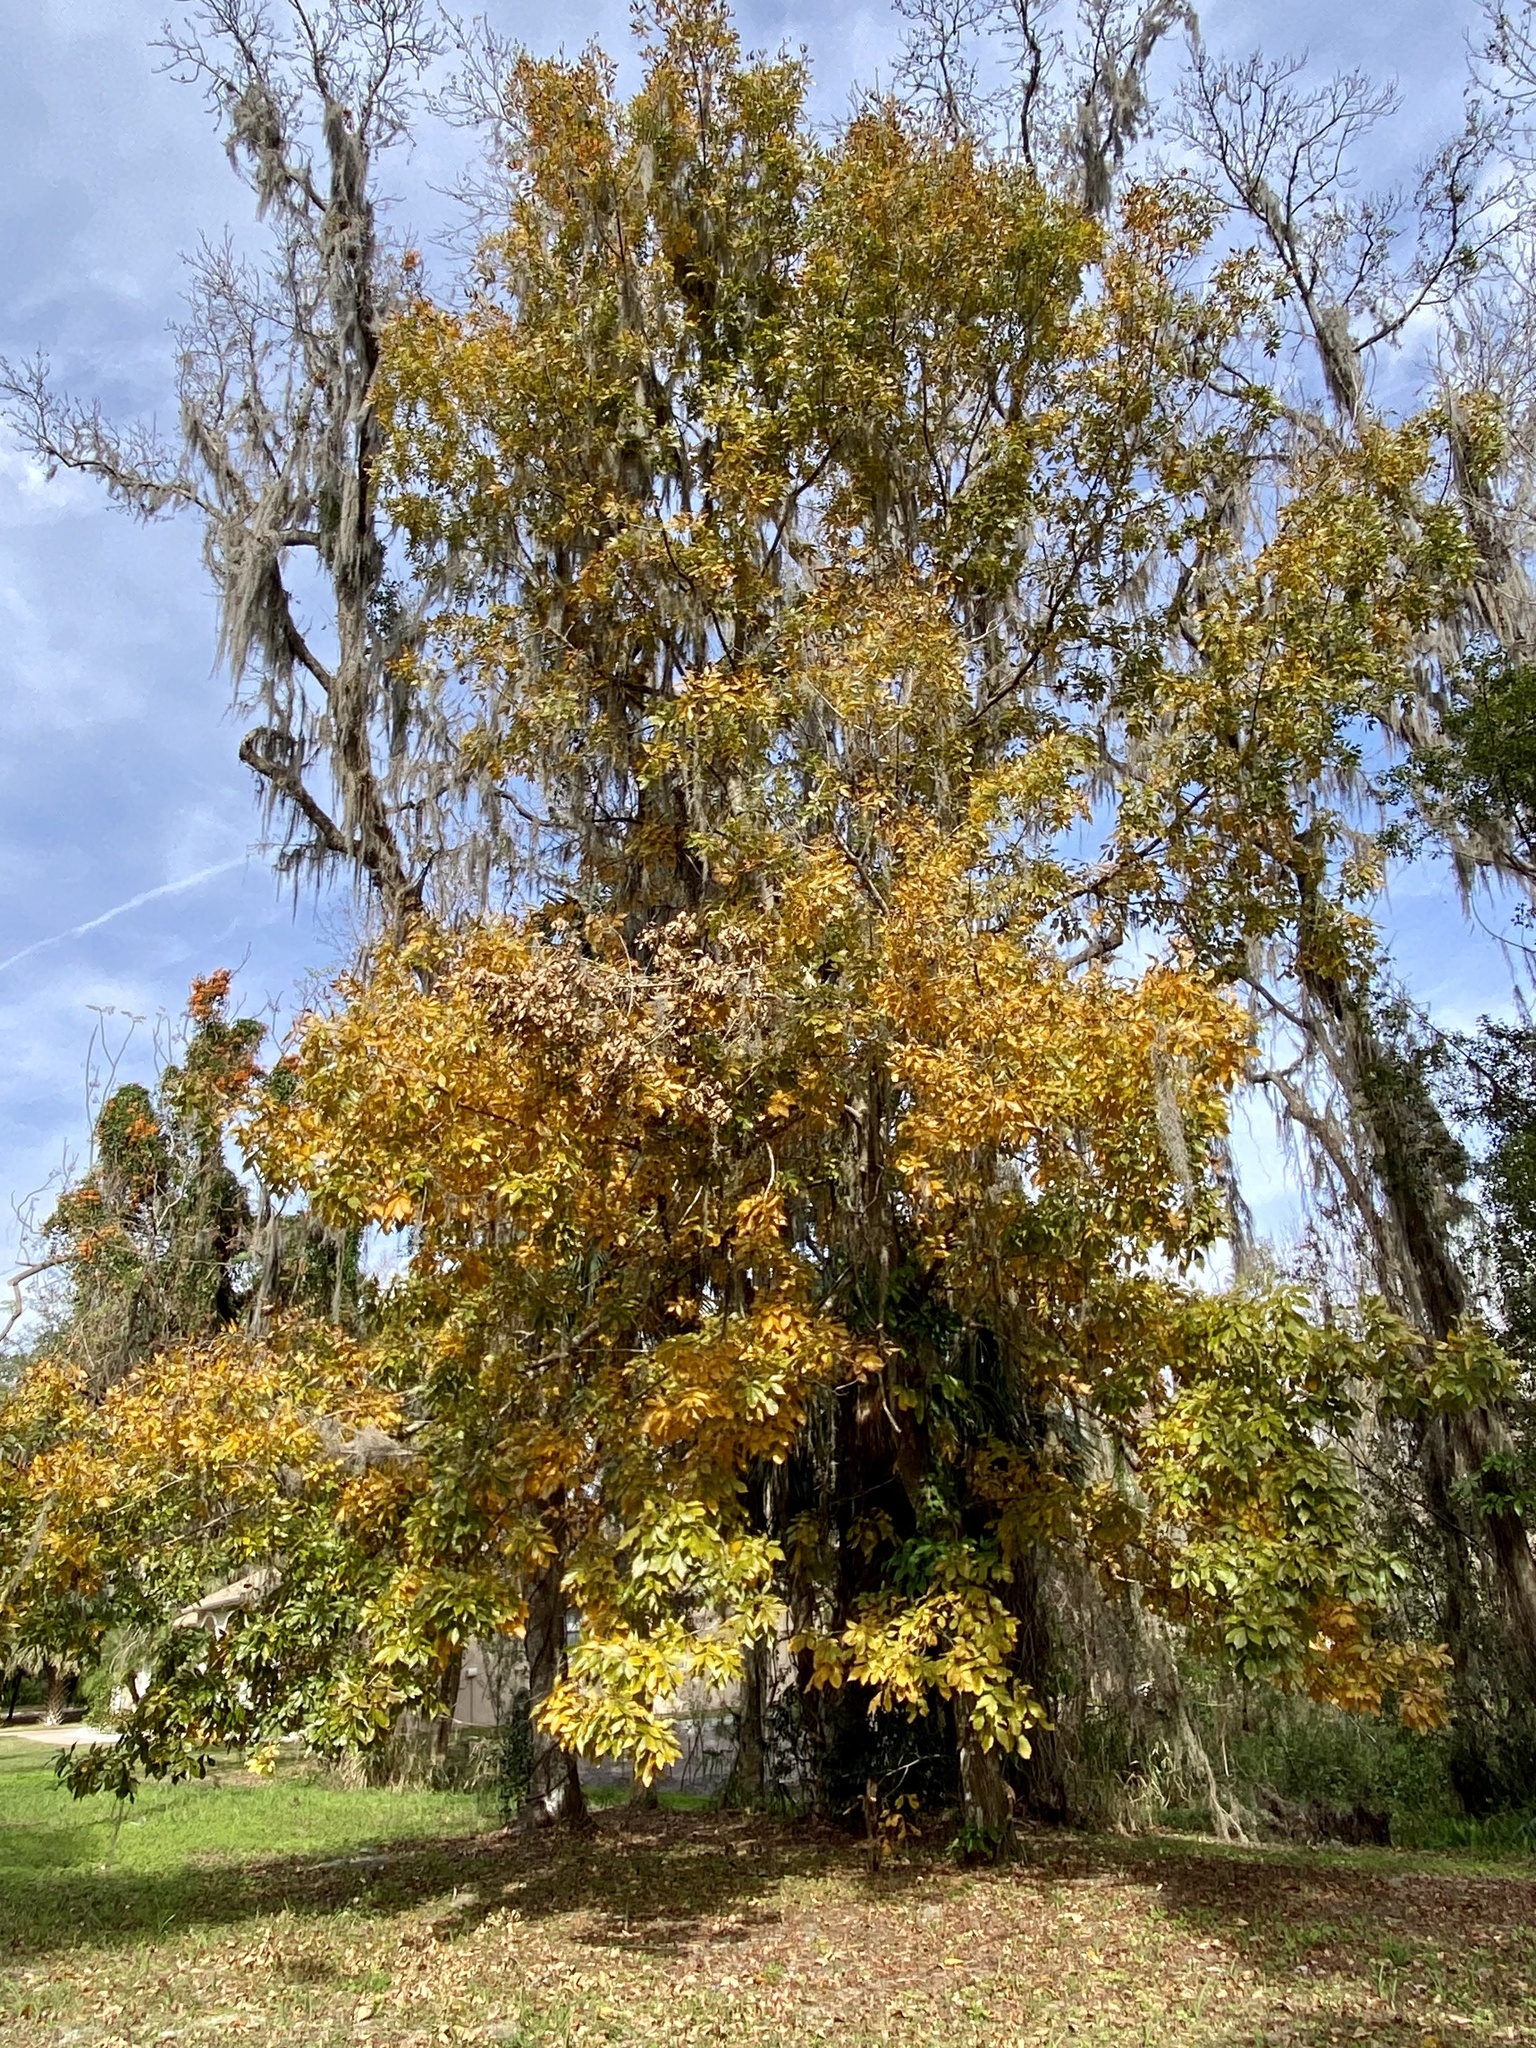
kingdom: Plantae
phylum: Tracheophyta
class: Magnoliopsida
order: Fagales
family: Juglandaceae
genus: Carya
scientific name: Carya glabra
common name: Pignut hickory
